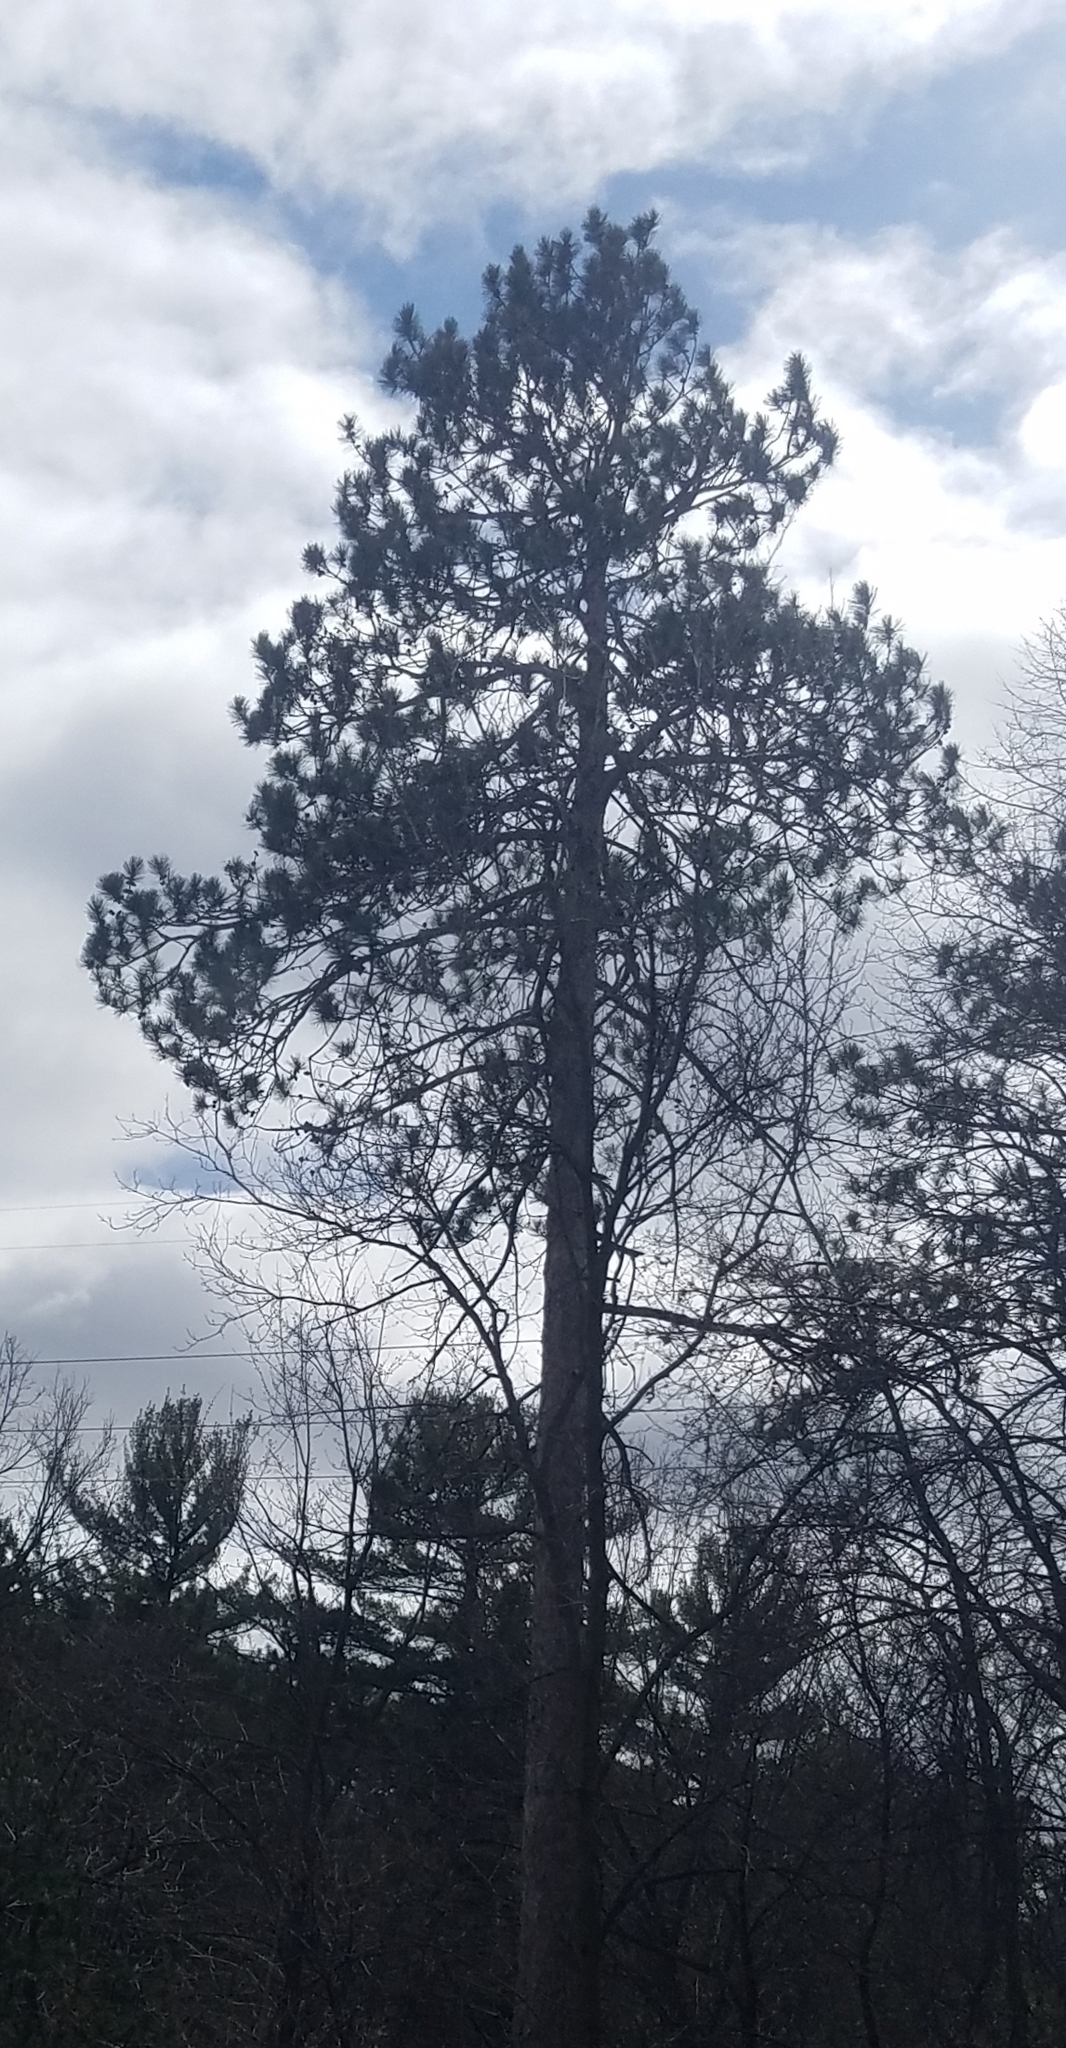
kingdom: Plantae
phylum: Tracheophyta
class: Pinopsida
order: Pinales
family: Pinaceae
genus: Pinus
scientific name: Pinus resinosa
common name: Norway pine
